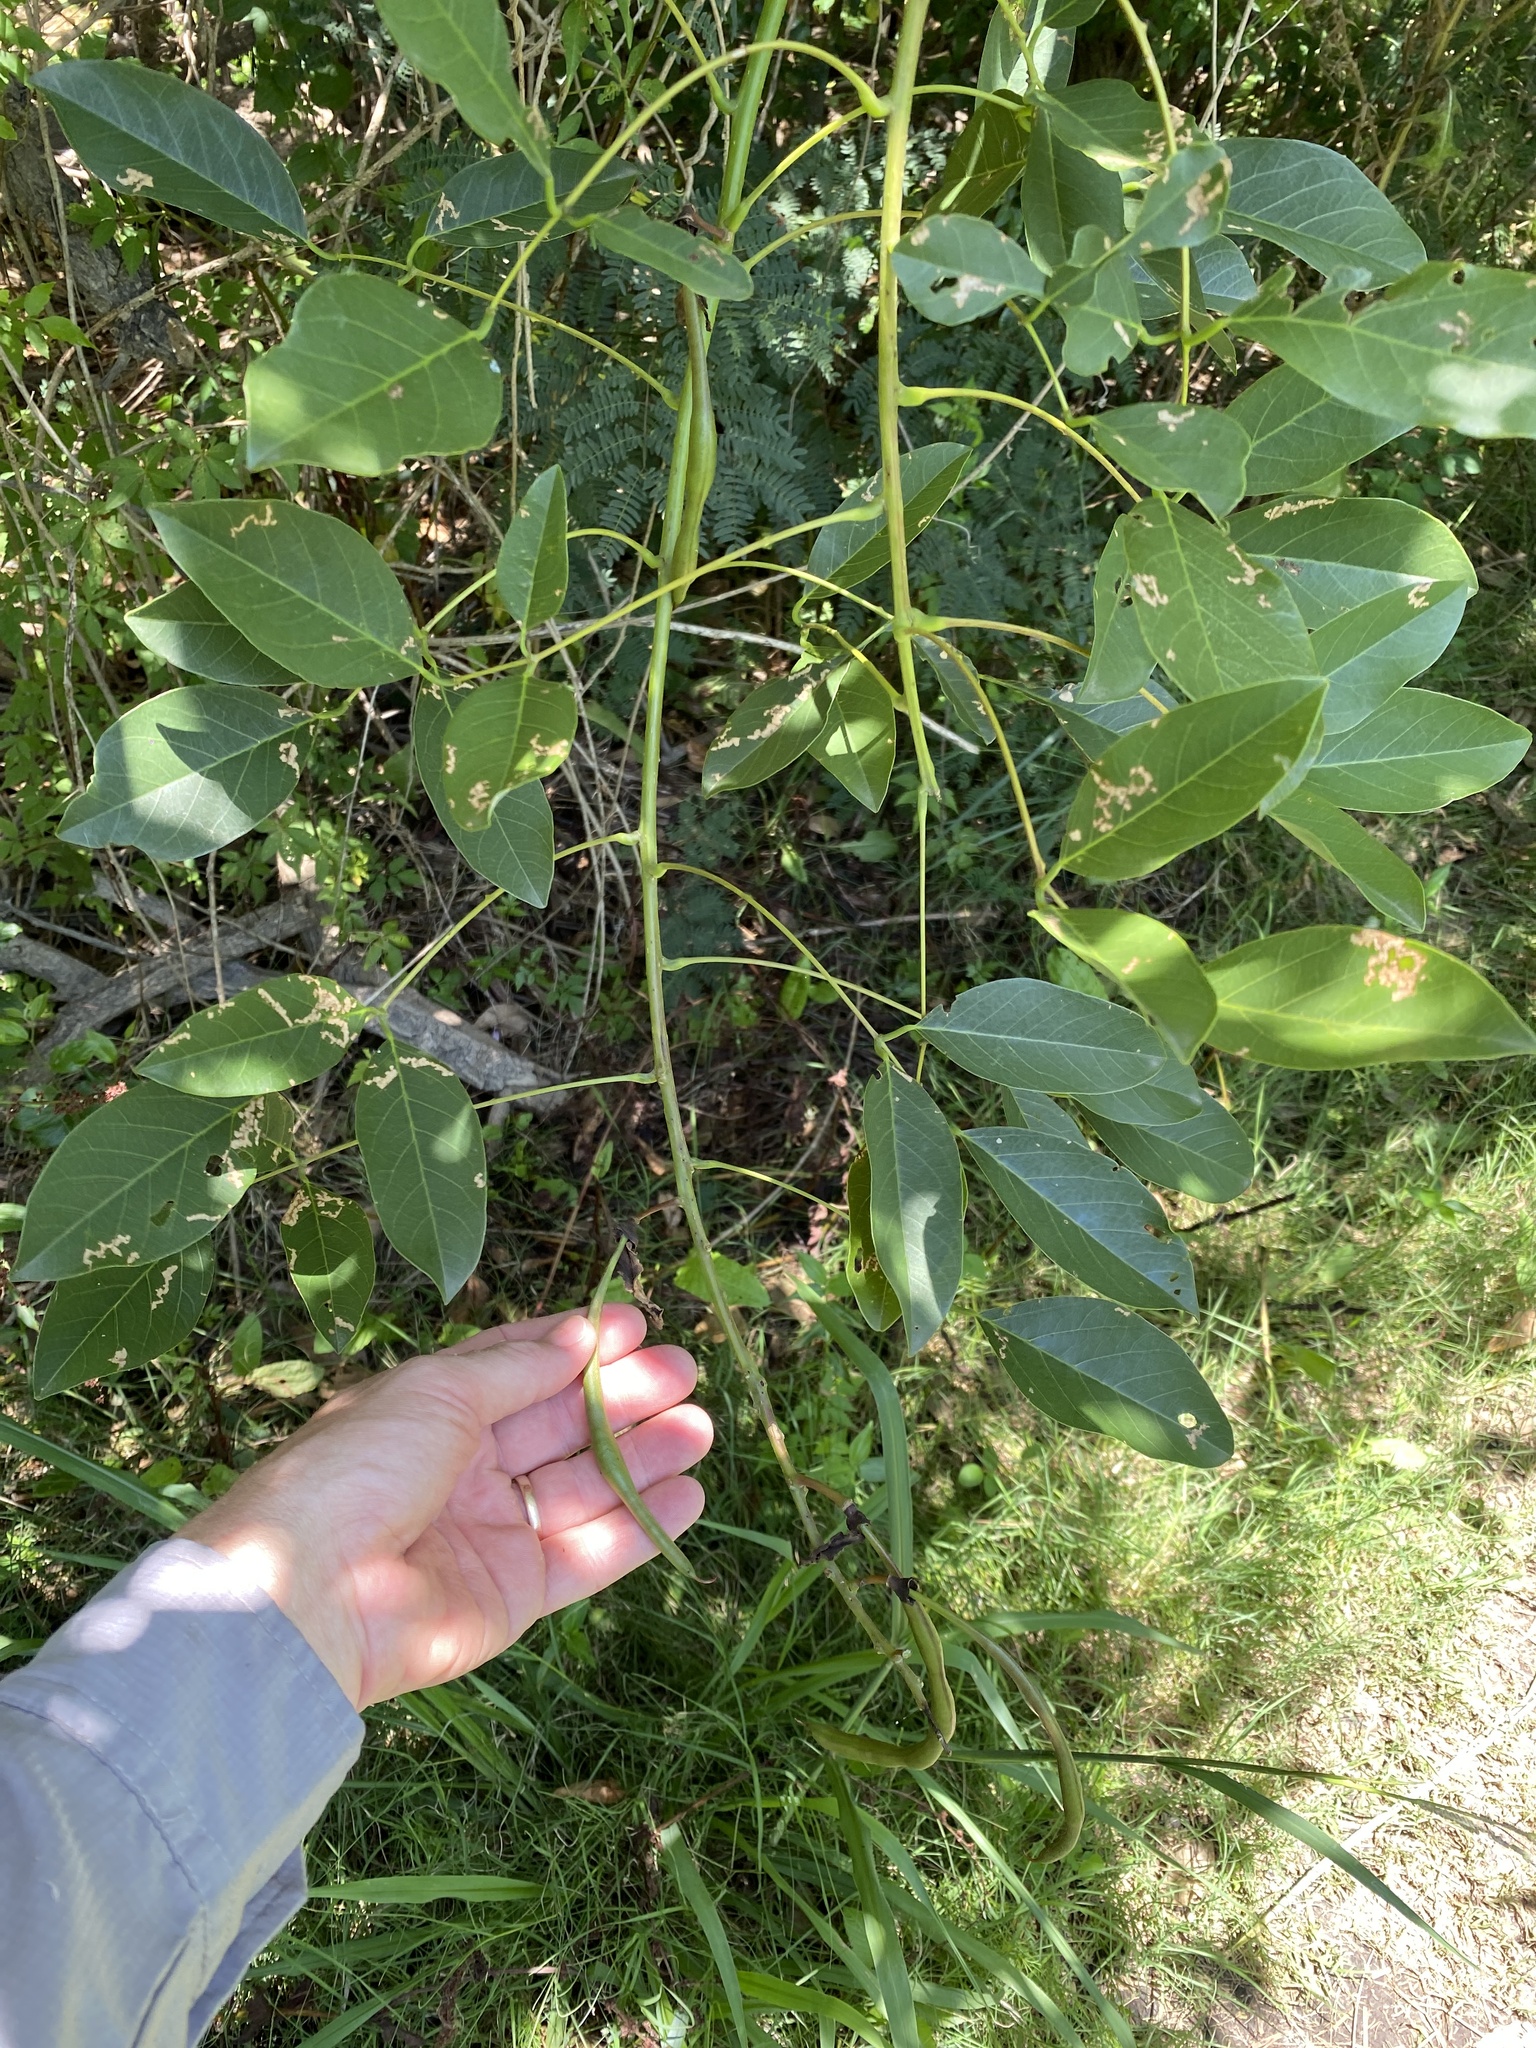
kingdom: Plantae
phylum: Tracheophyta
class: Magnoliopsida
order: Fabales
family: Fabaceae
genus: Erythrina
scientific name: Erythrina crista-galli
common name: Cockspur coral tree
